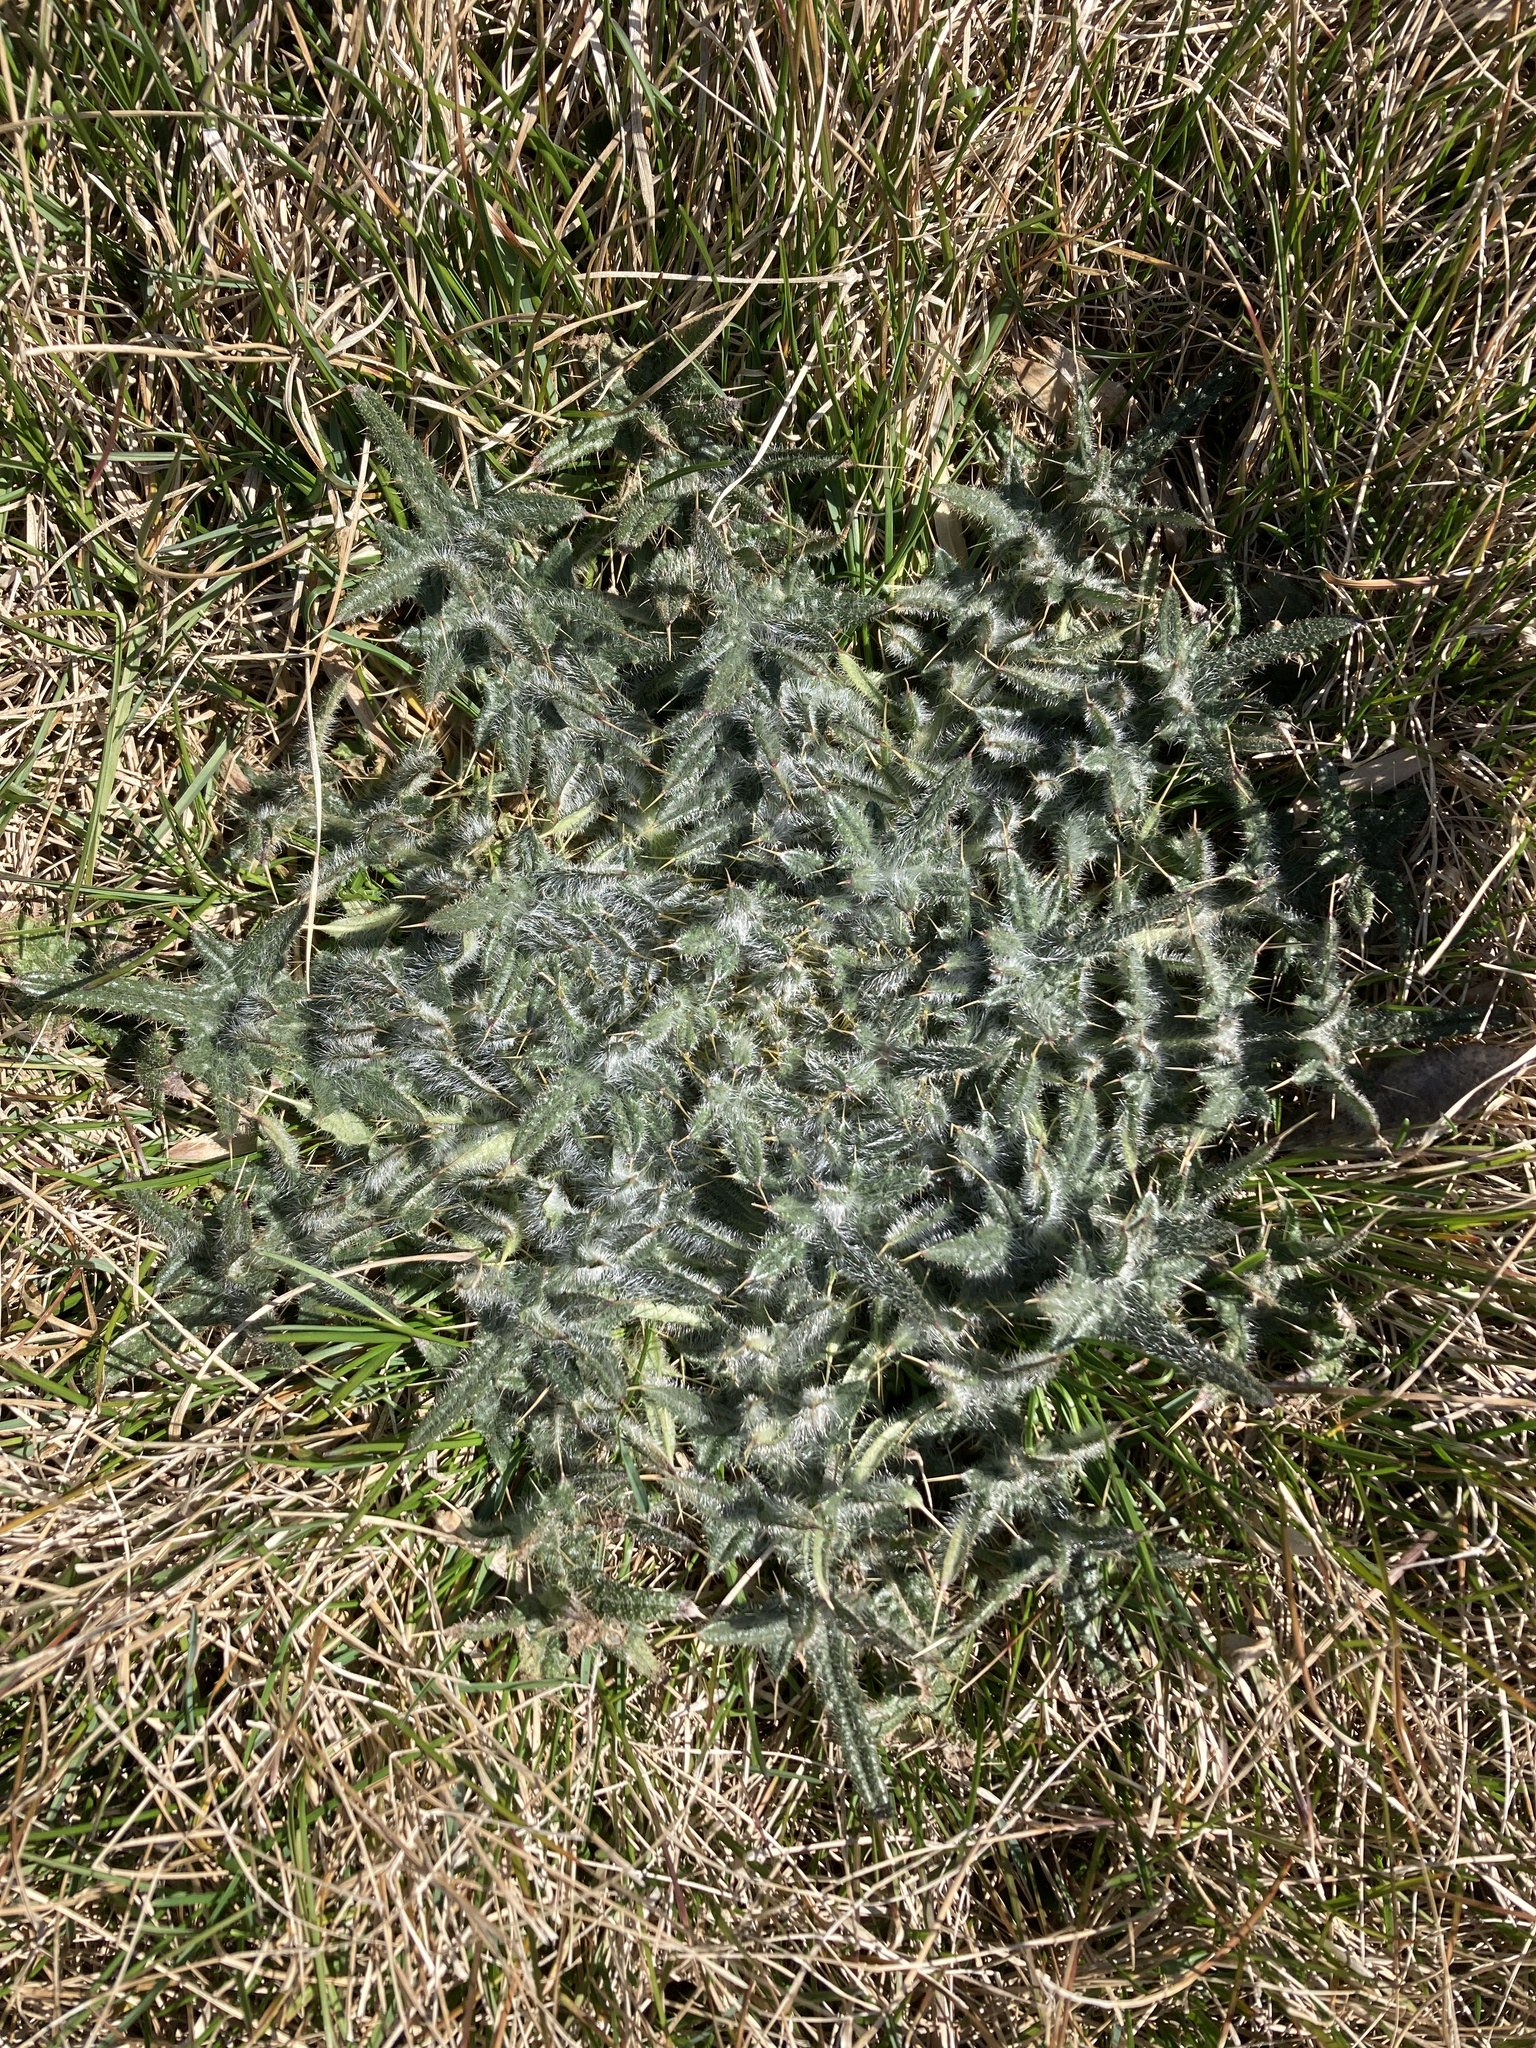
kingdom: Plantae
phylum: Tracheophyta
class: Magnoliopsida
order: Asterales
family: Asteraceae
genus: Cirsium
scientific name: Cirsium vulgare
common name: Bull thistle
